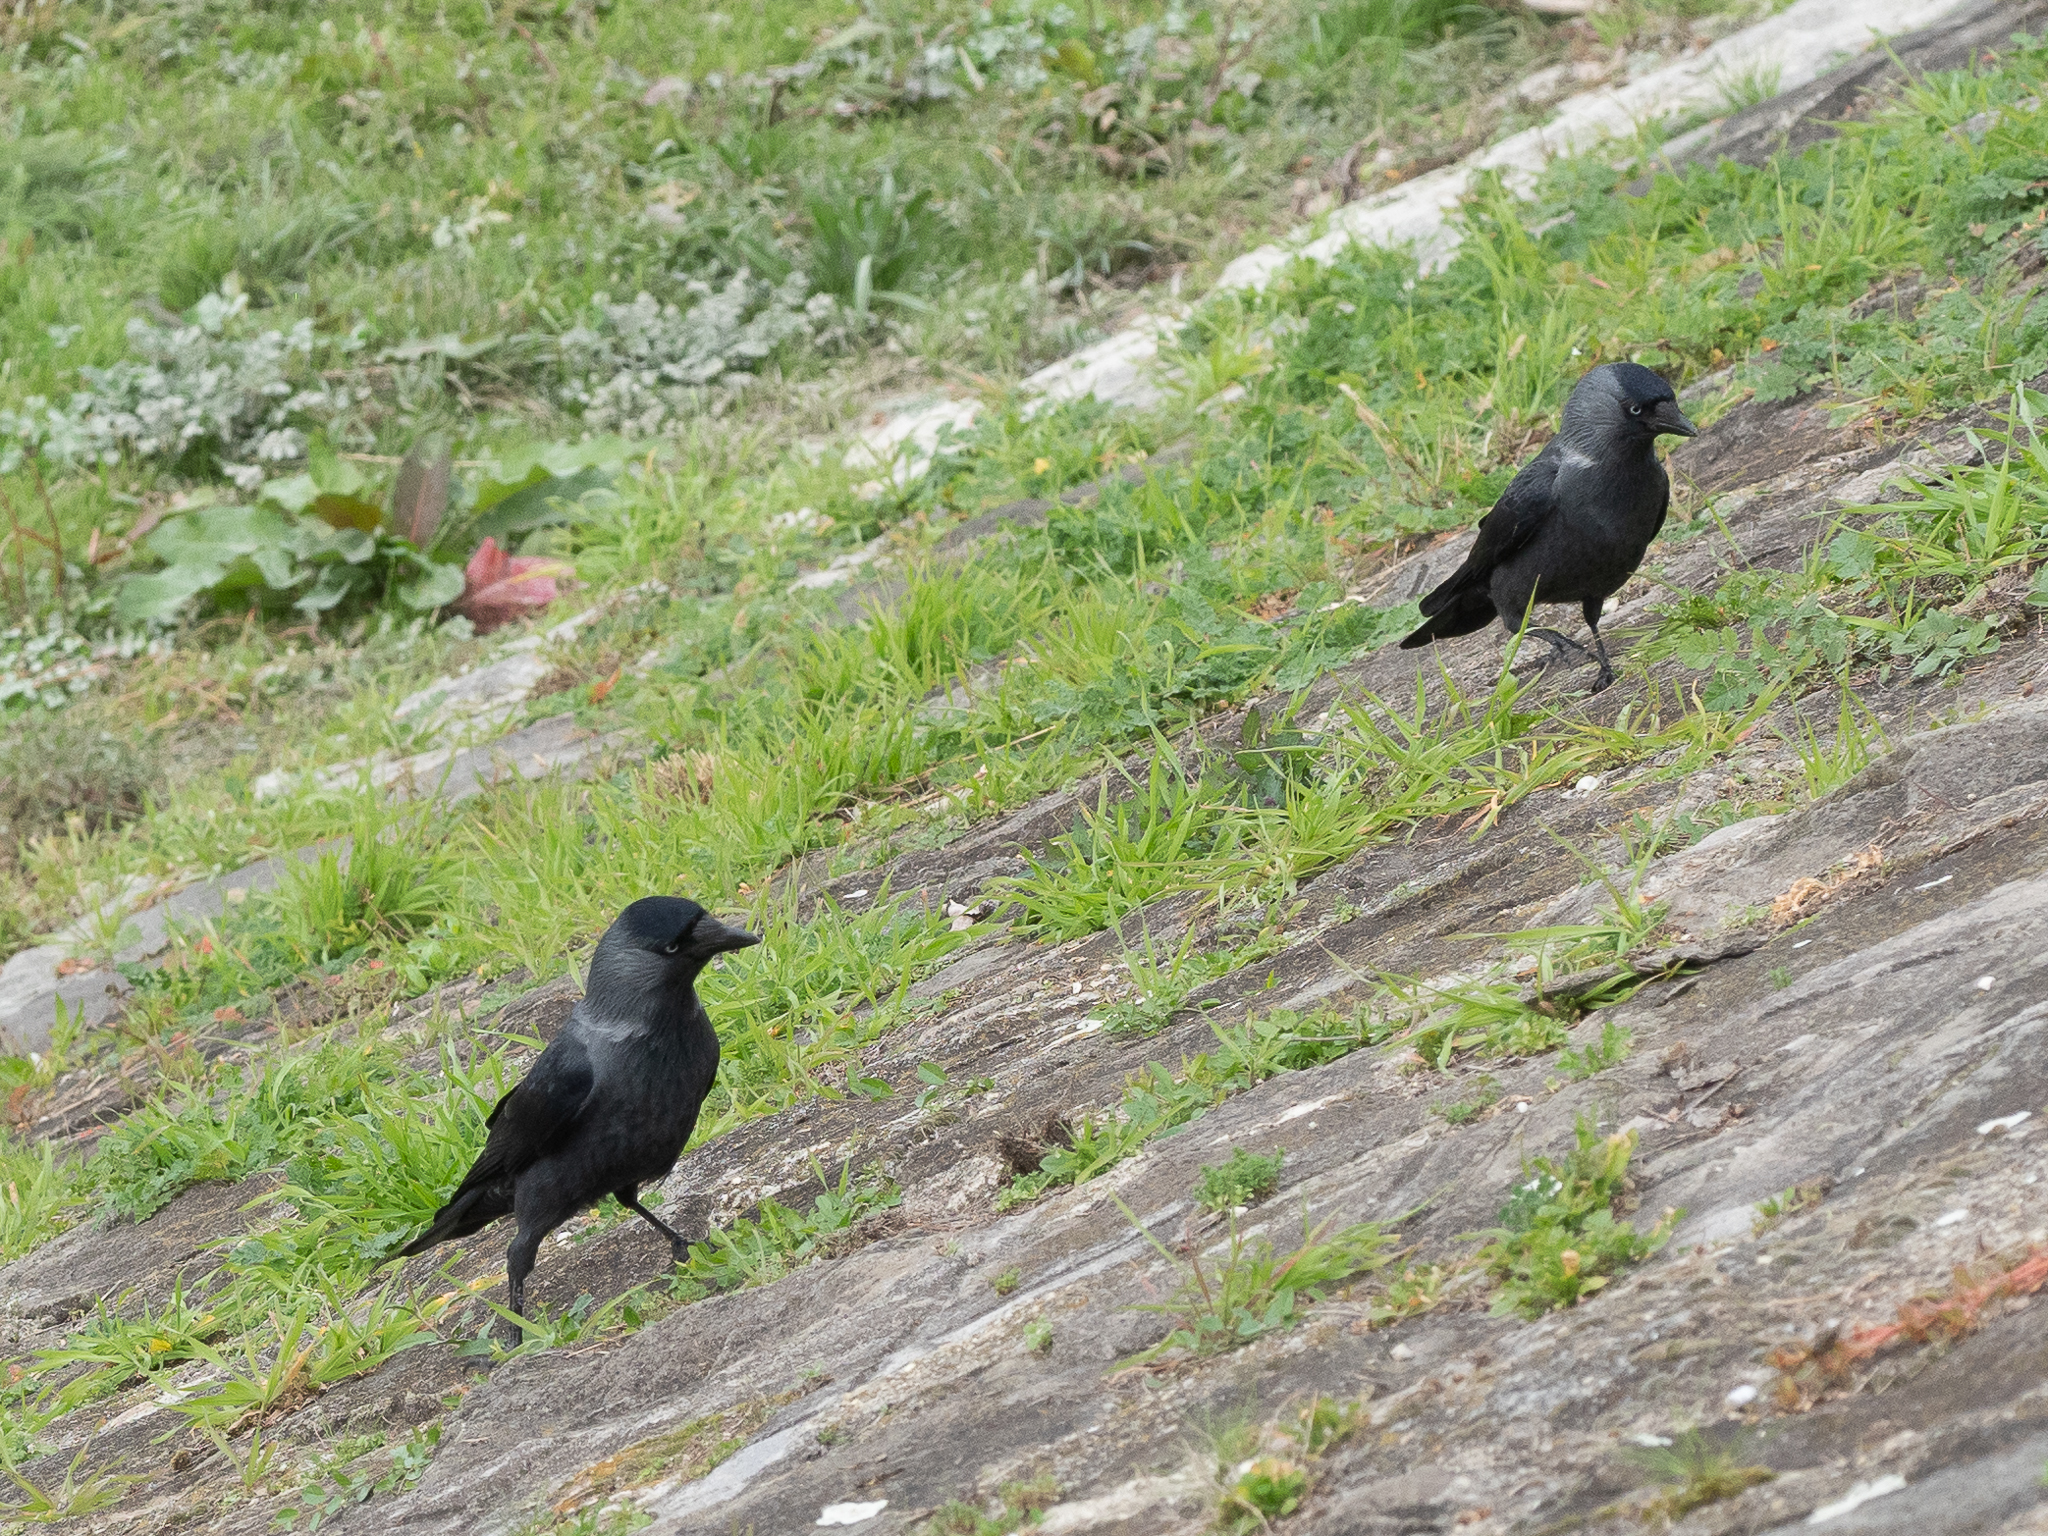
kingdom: Animalia
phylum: Chordata
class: Aves
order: Passeriformes
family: Corvidae
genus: Coloeus
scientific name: Coloeus monedula
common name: Western jackdaw
